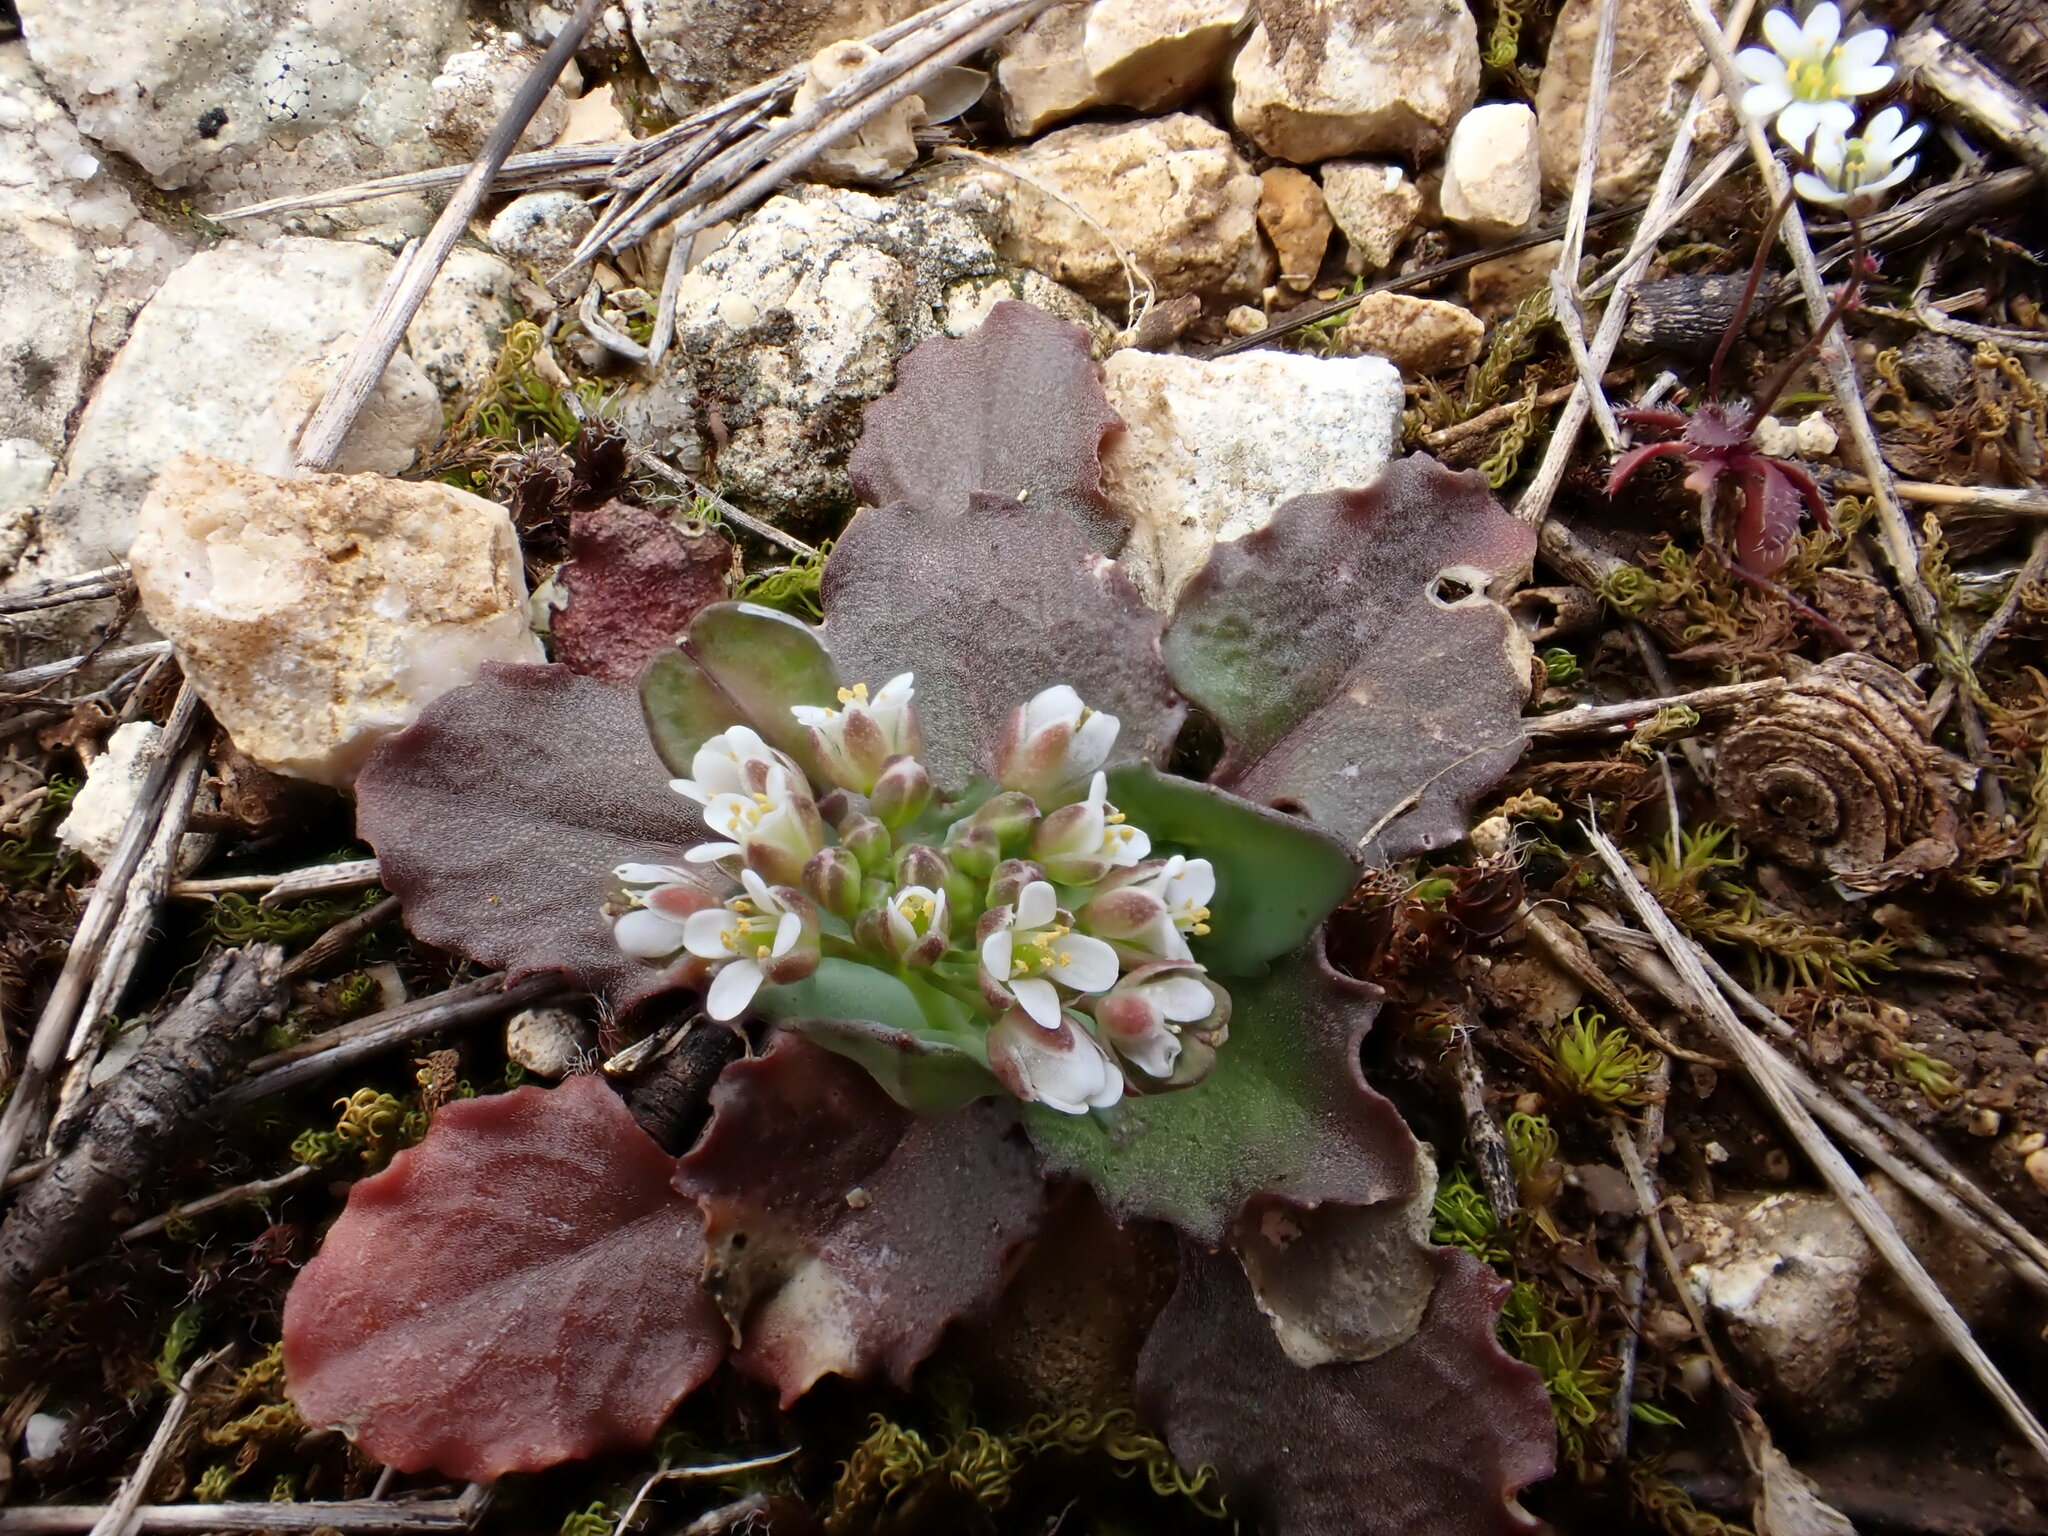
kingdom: Plantae
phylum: Tracheophyta
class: Magnoliopsida
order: Brassicales
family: Brassicaceae
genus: Noccaea
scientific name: Noccaea perfoliata
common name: Perfoliate pennycress
